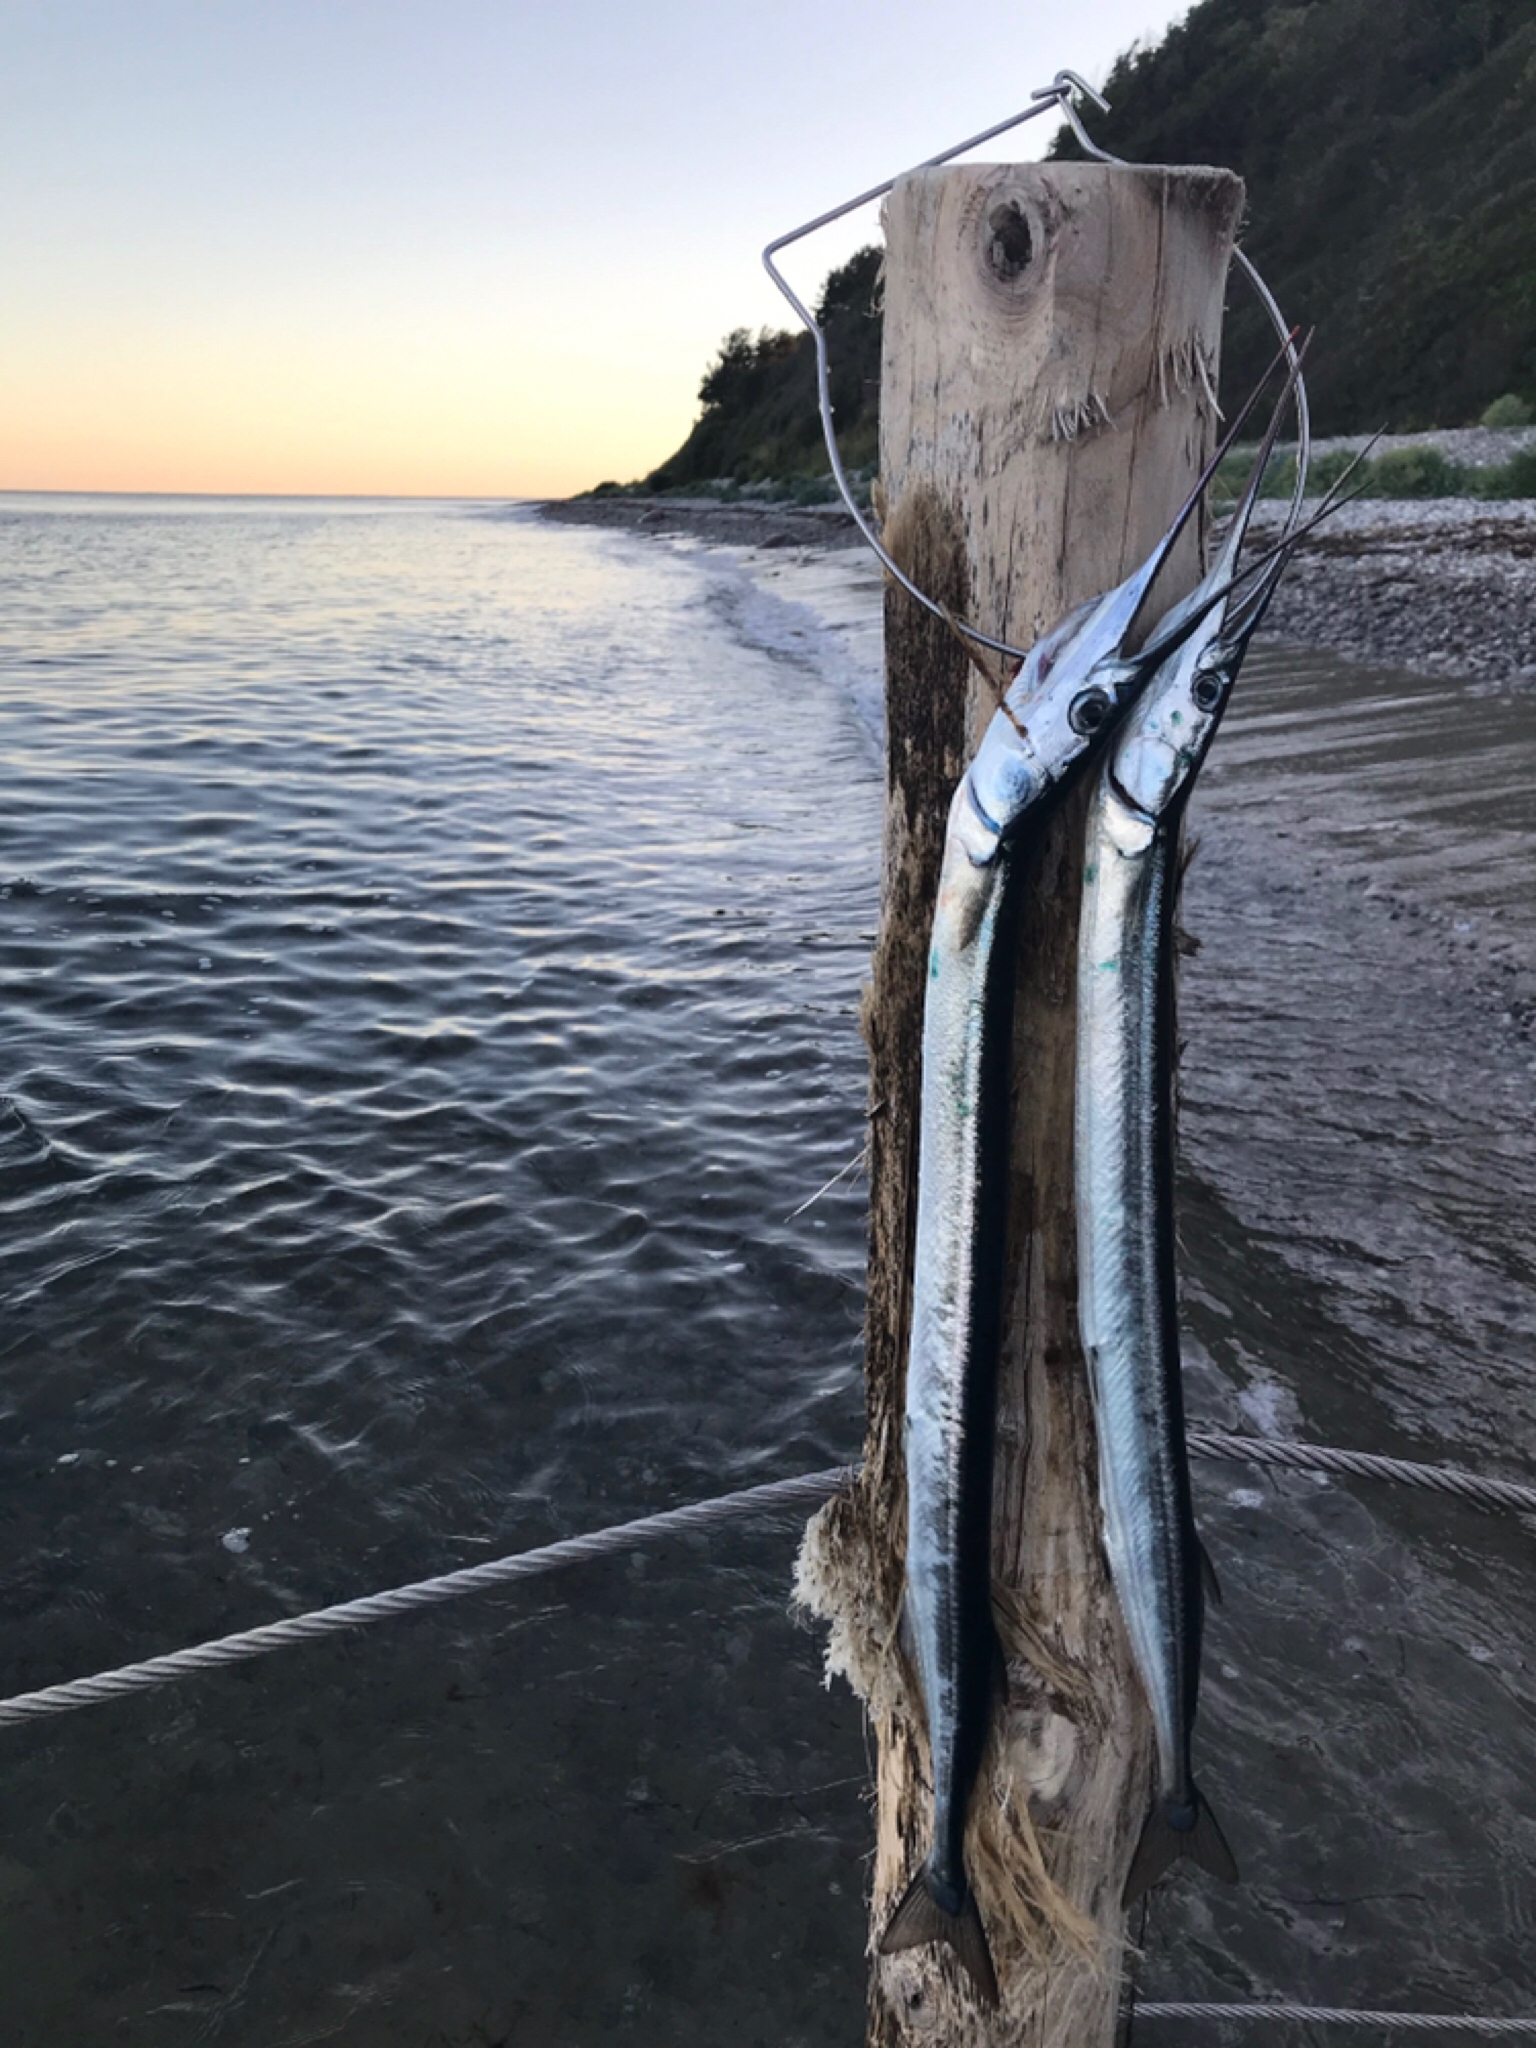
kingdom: Animalia
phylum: Chordata
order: Beloniformes
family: Belonidae
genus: Belone
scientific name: Belone belone
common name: Garfish
